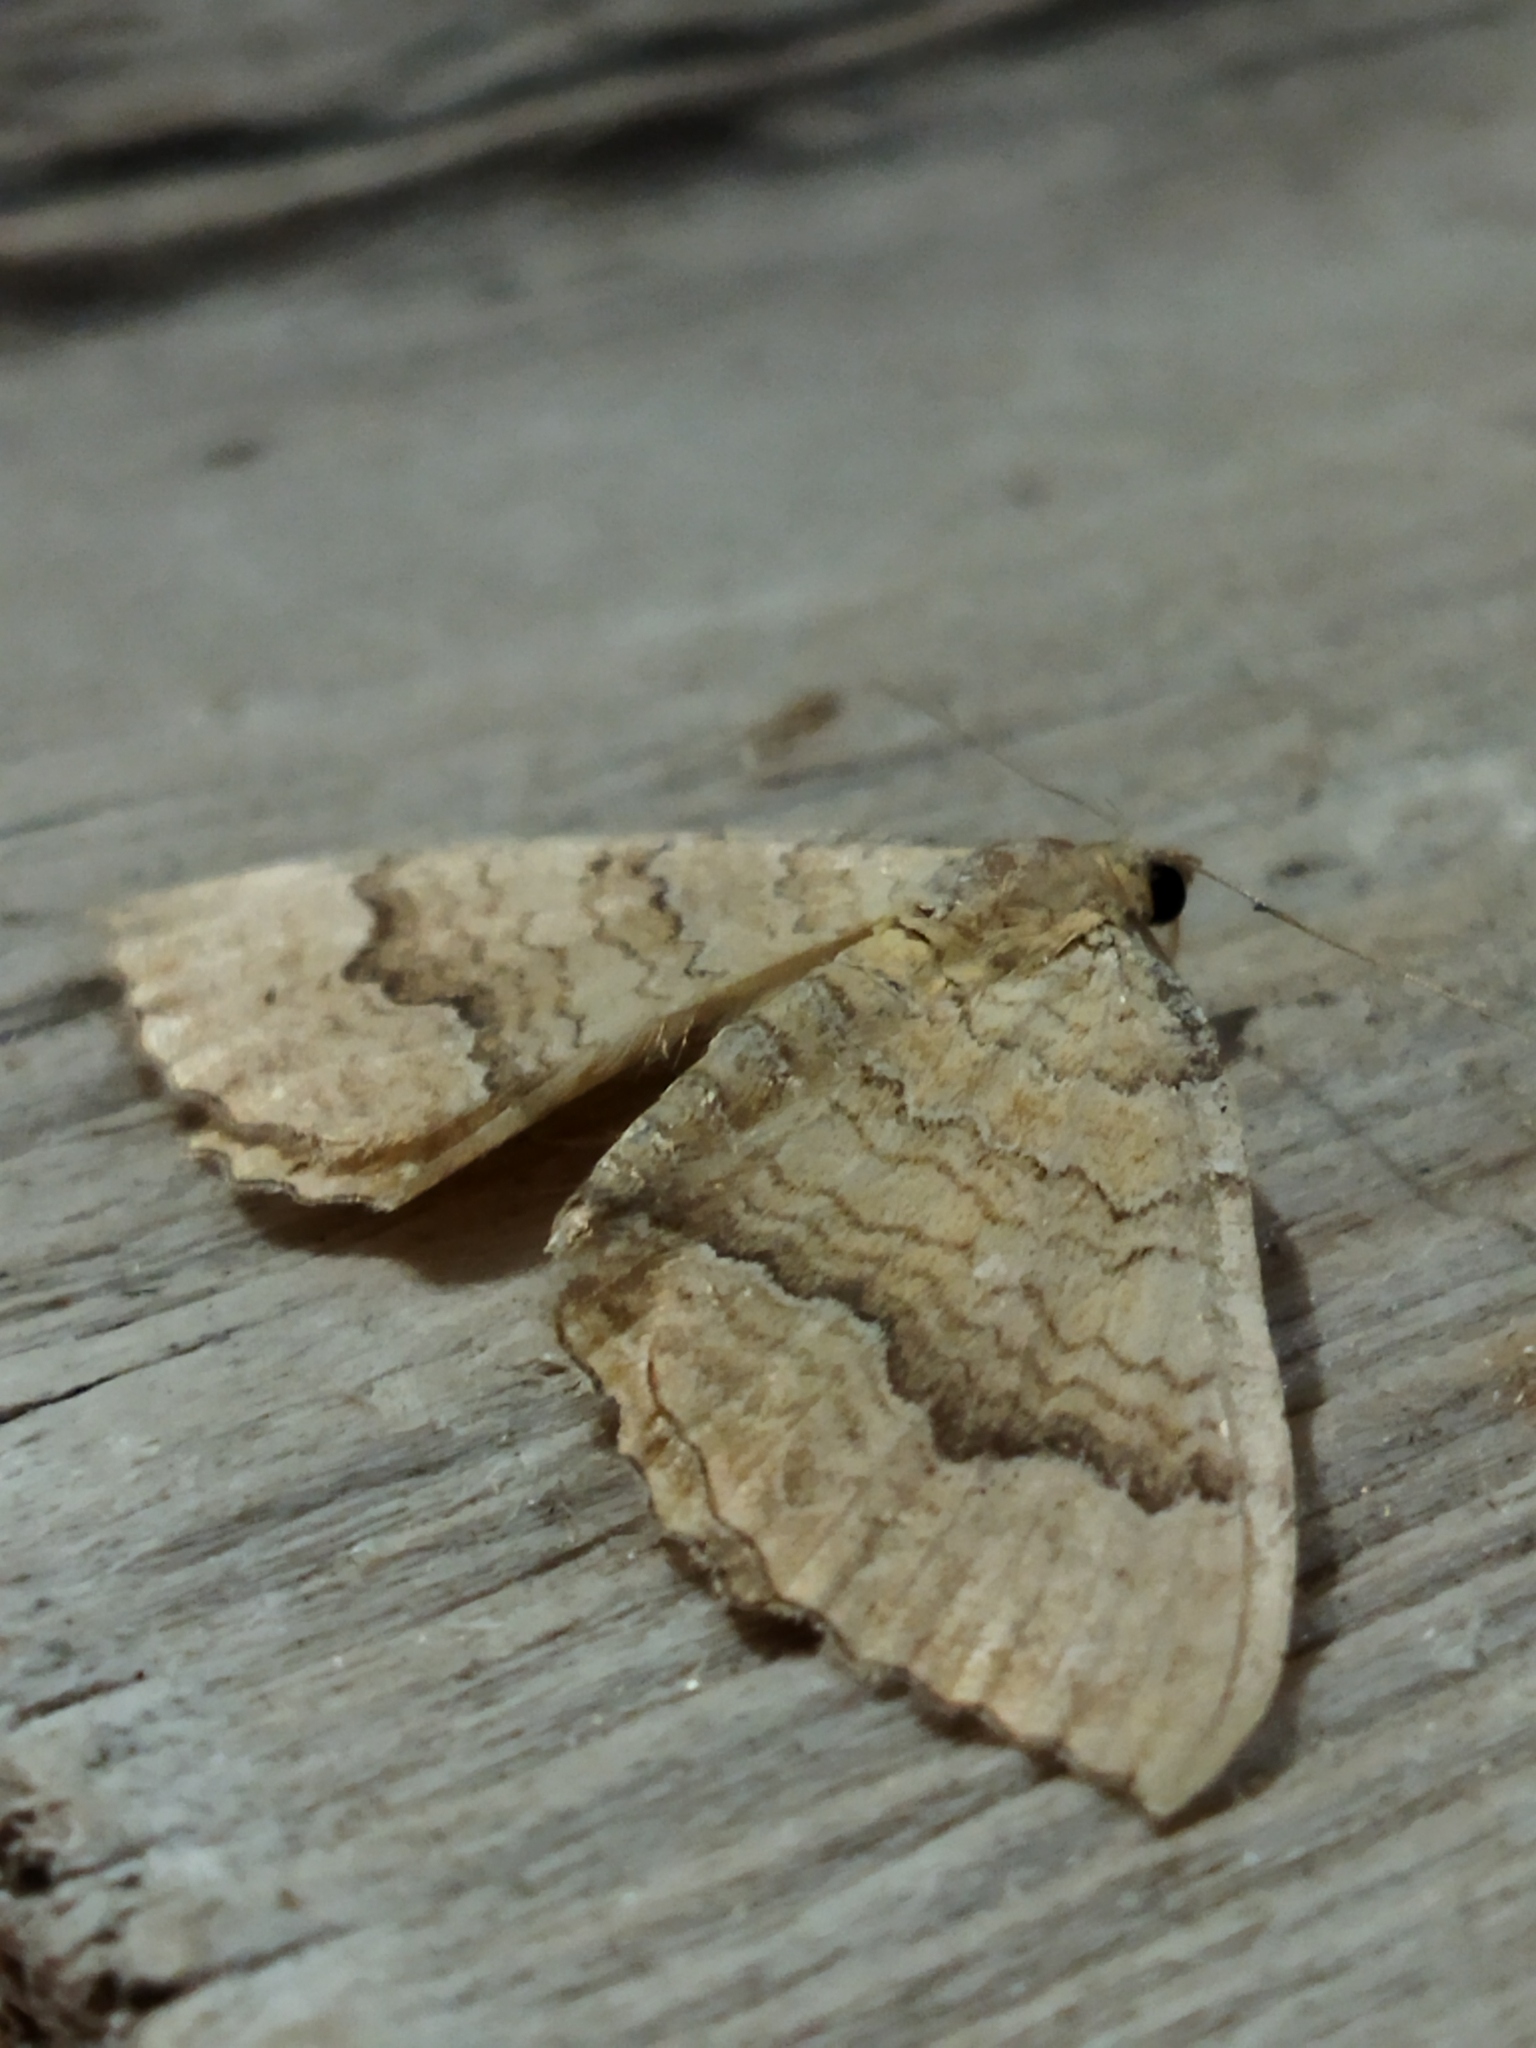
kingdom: Animalia
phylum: Arthropoda
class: Insecta
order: Lepidoptera
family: Geometridae
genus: Camptogramma
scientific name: Camptogramma bilineata
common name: Yellow shell
